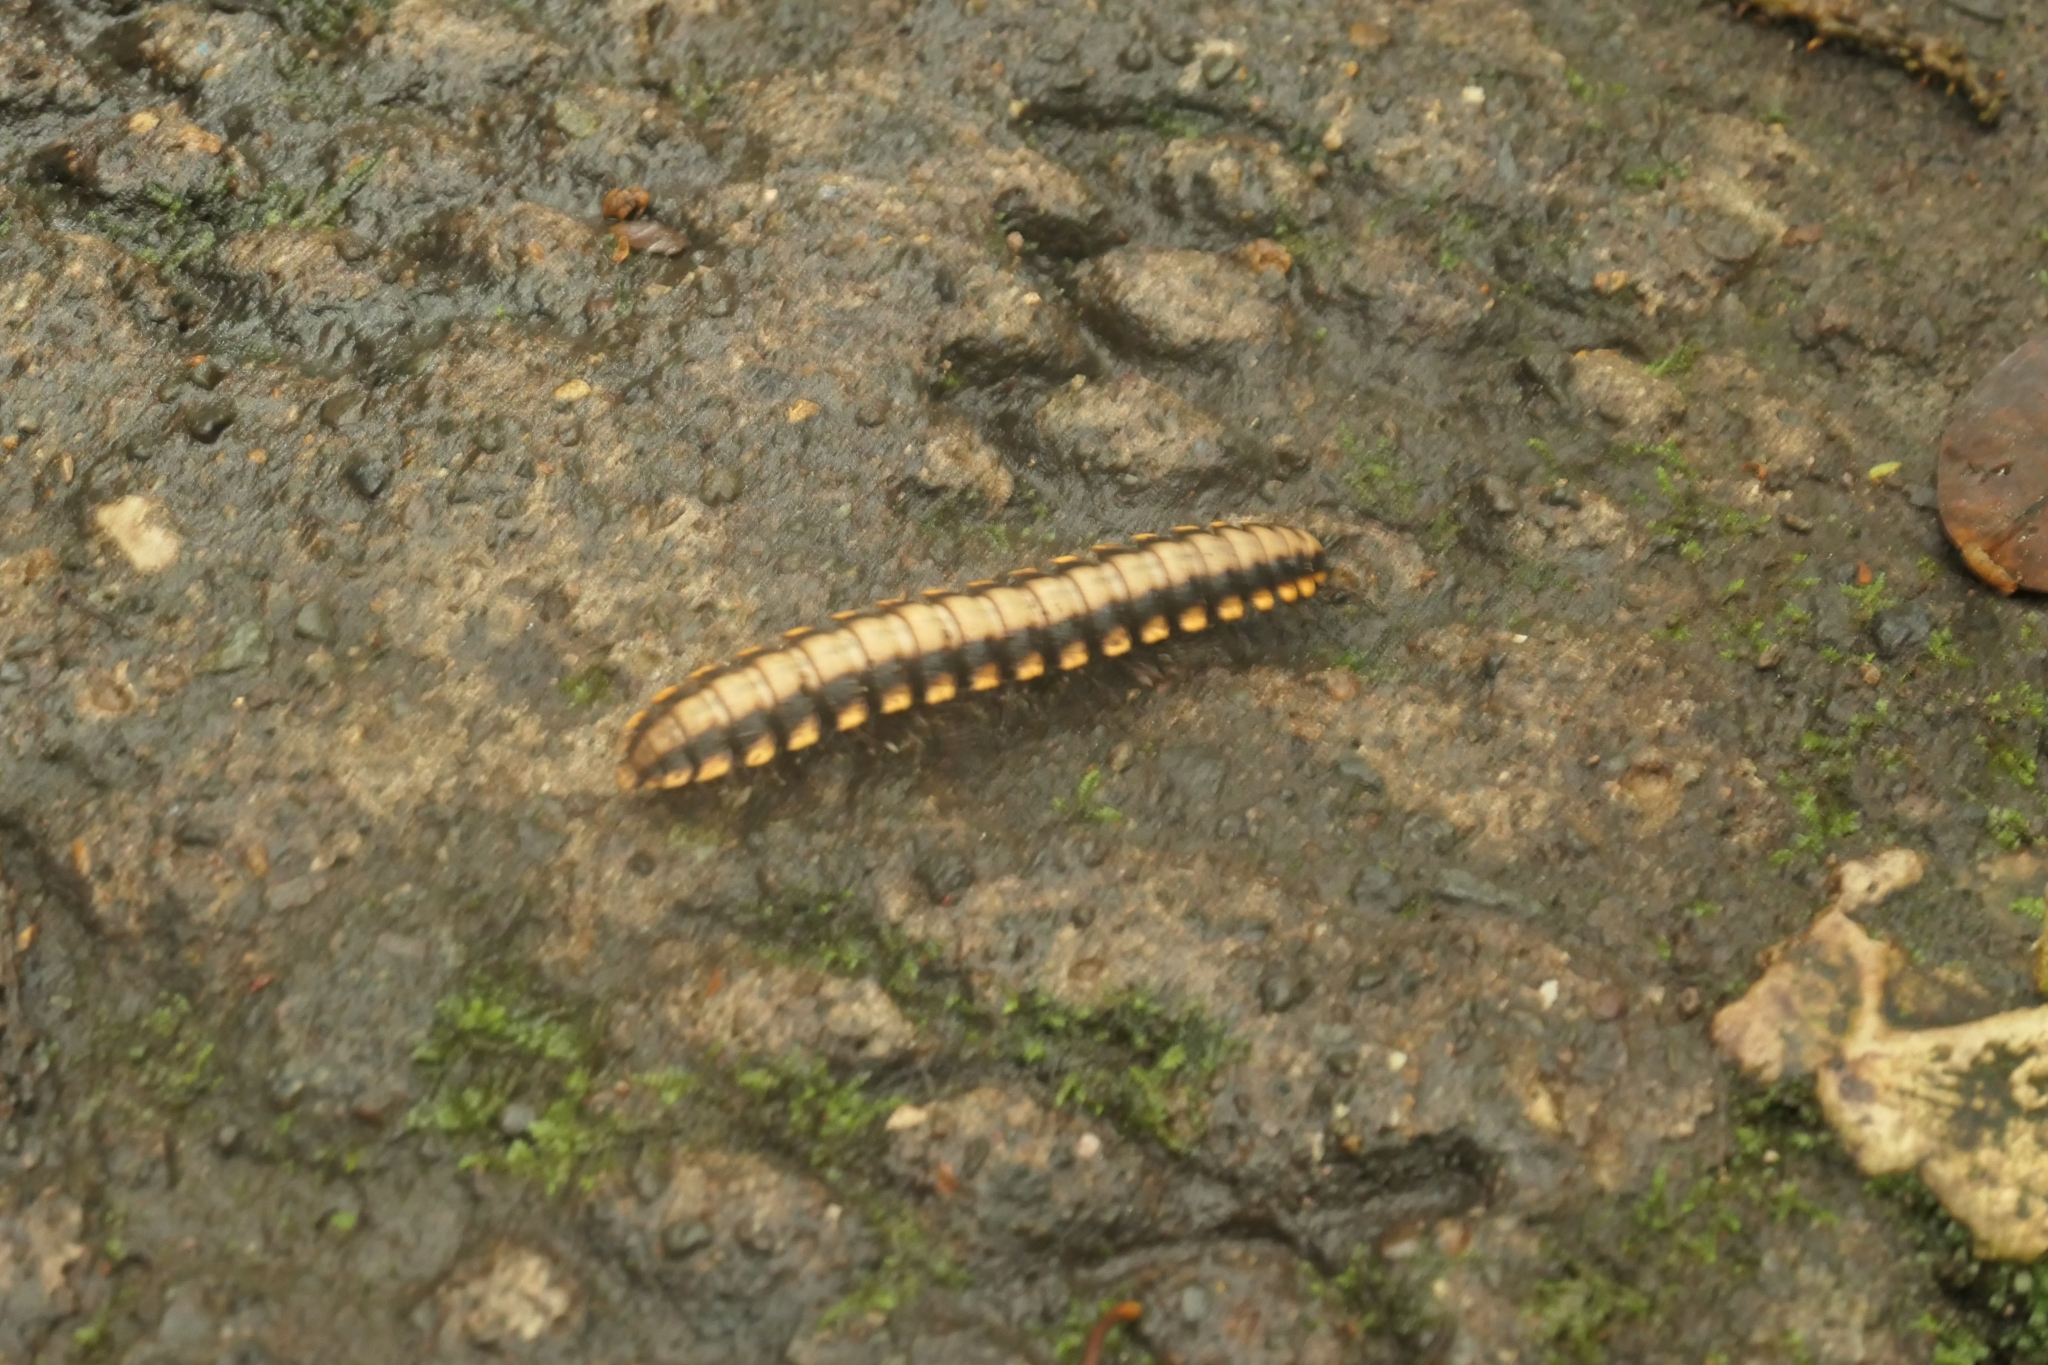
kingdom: Animalia
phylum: Arthropoda
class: Diplopoda
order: Polydesmida
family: Platyrhacidae
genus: Nyssodesmus
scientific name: Nyssodesmus python
